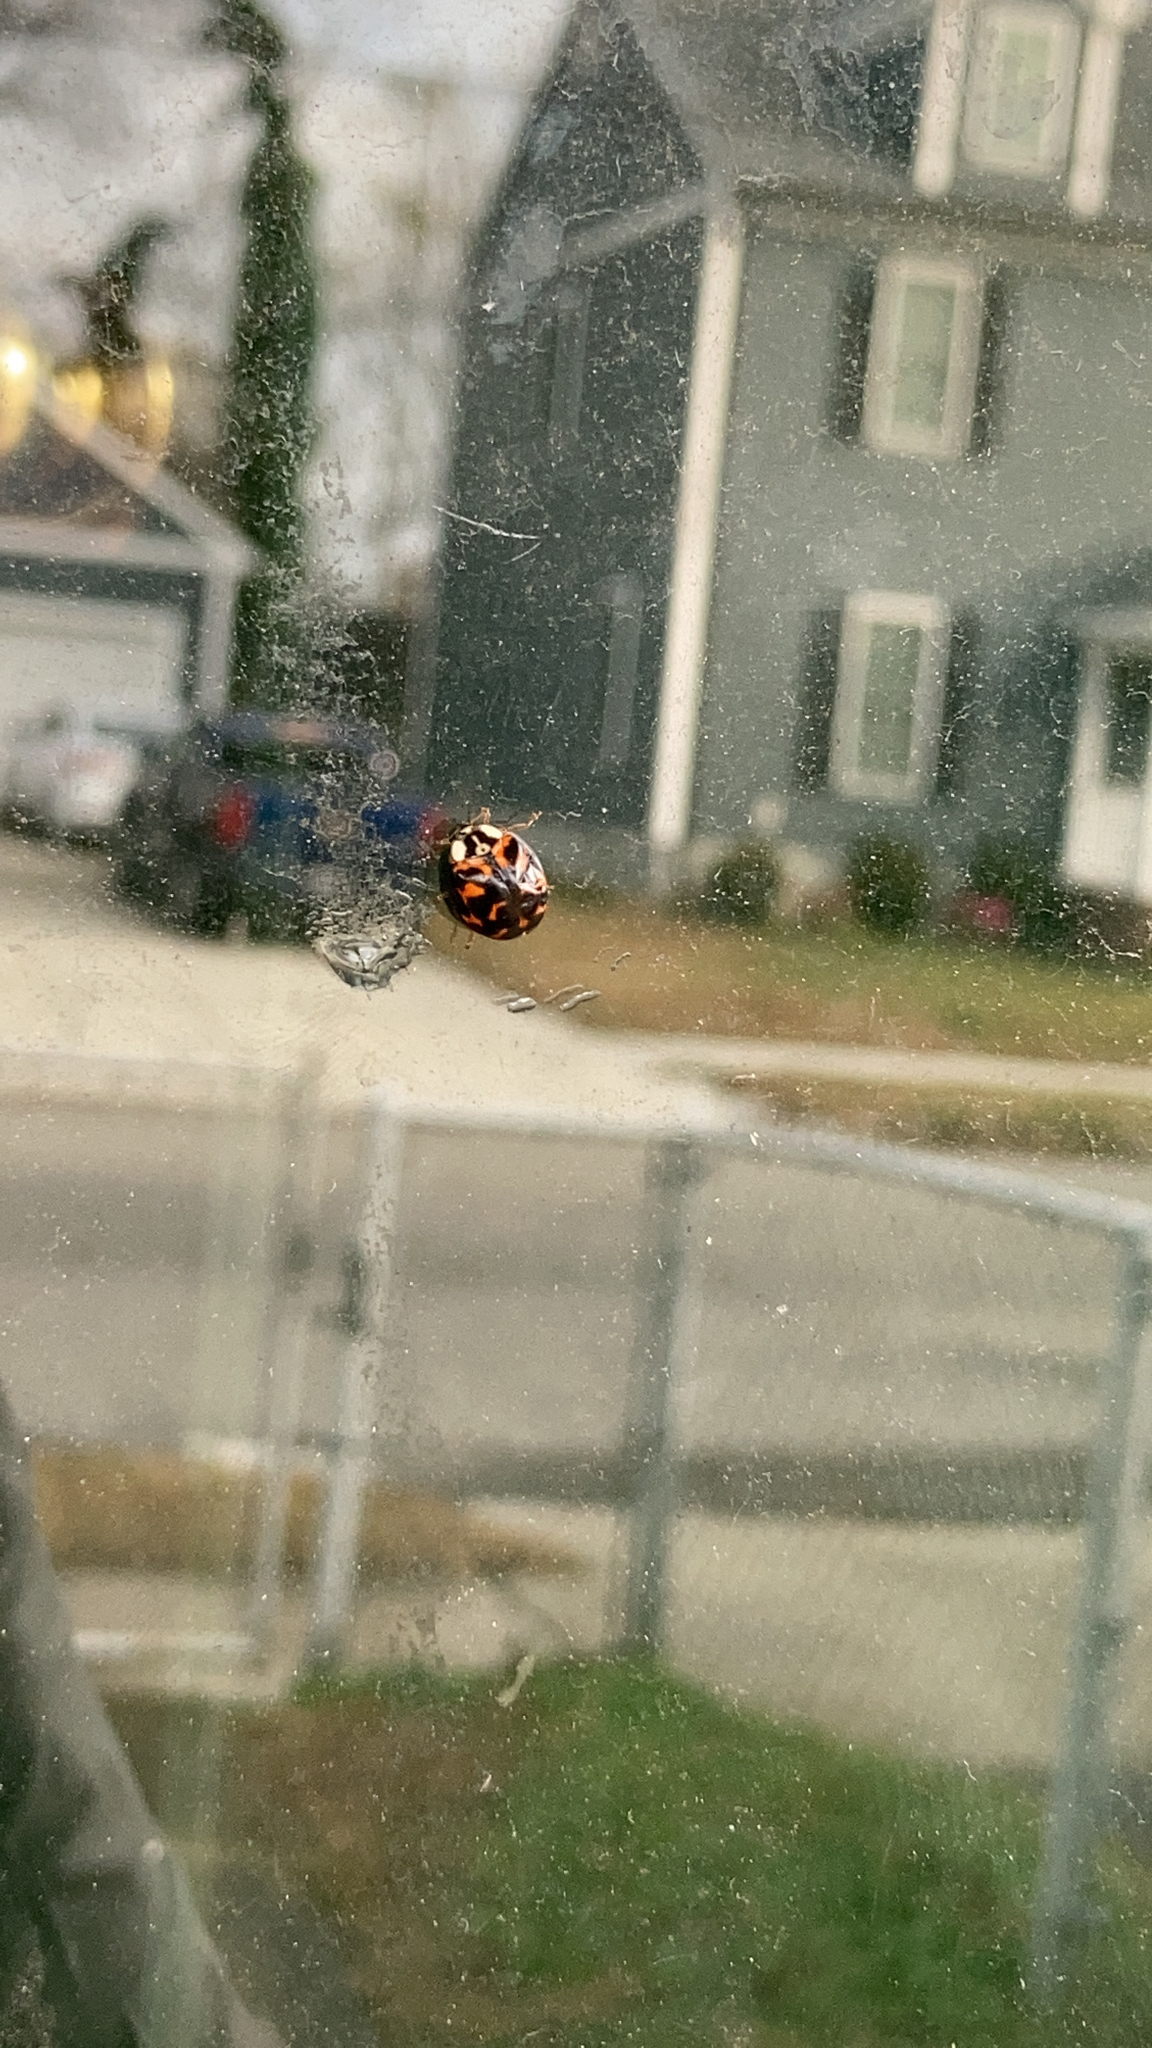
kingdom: Animalia
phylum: Arthropoda
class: Insecta
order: Coleoptera
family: Coccinellidae
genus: Harmonia
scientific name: Harmonia axyridis
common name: Harlequin ladybird
